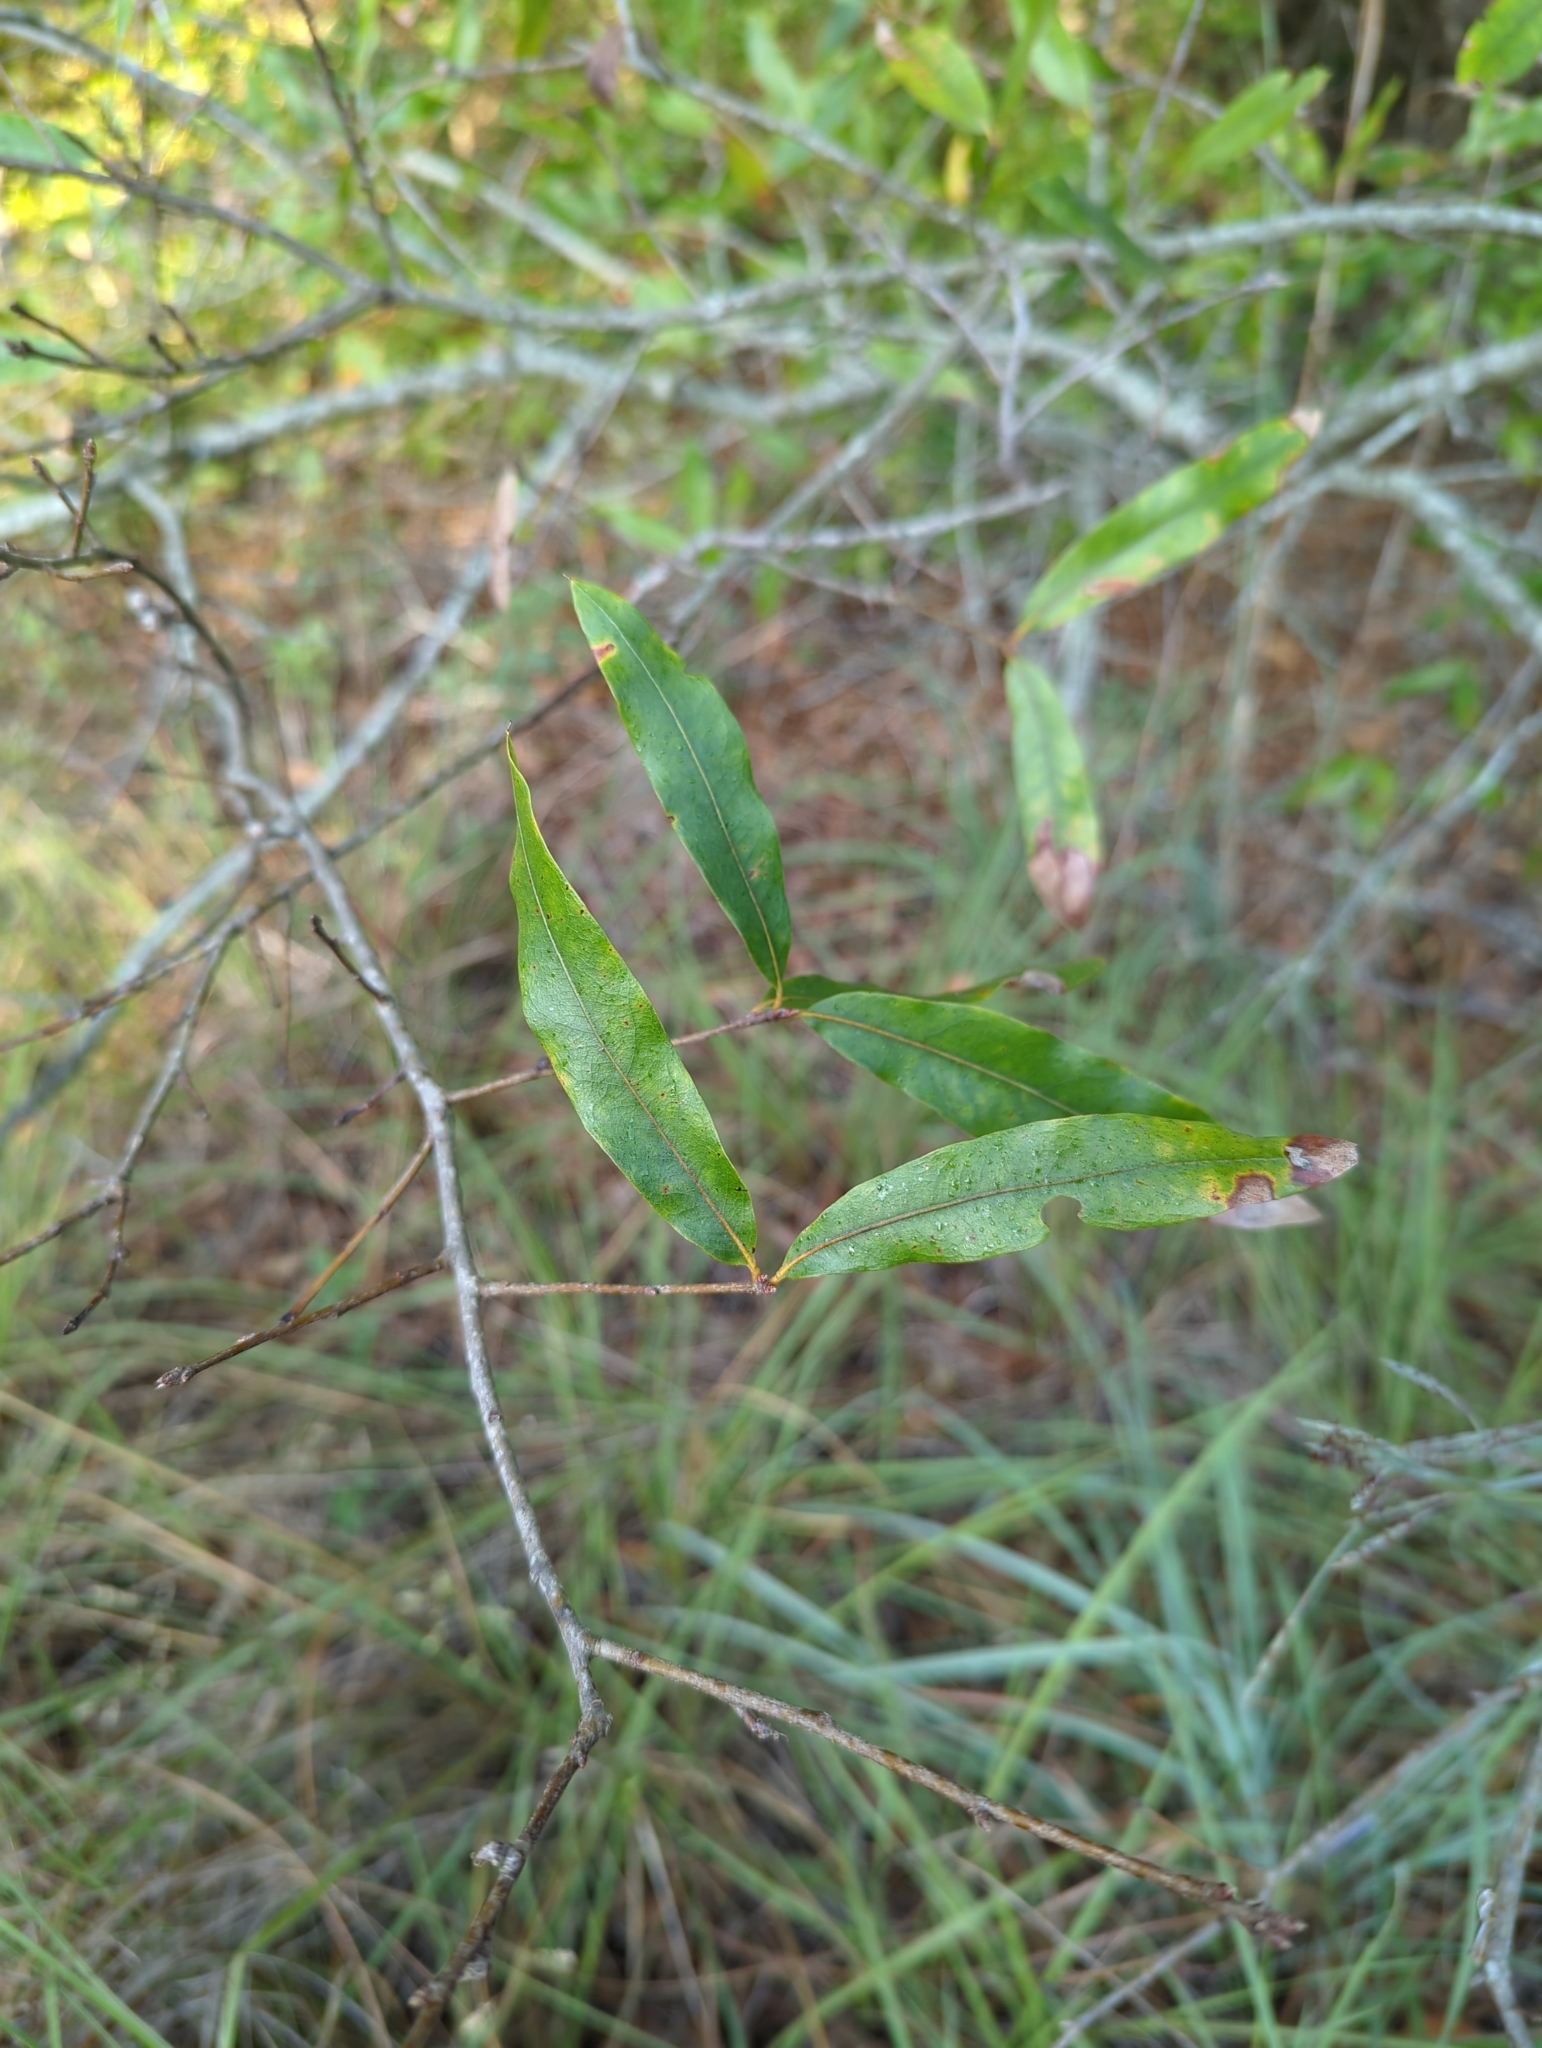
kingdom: Plantae
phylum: Tracheophyta
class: Magnoliopsida
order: Fagales
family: Fagaceae
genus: Quercus
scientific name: Quercus phellos
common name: Willow oak
